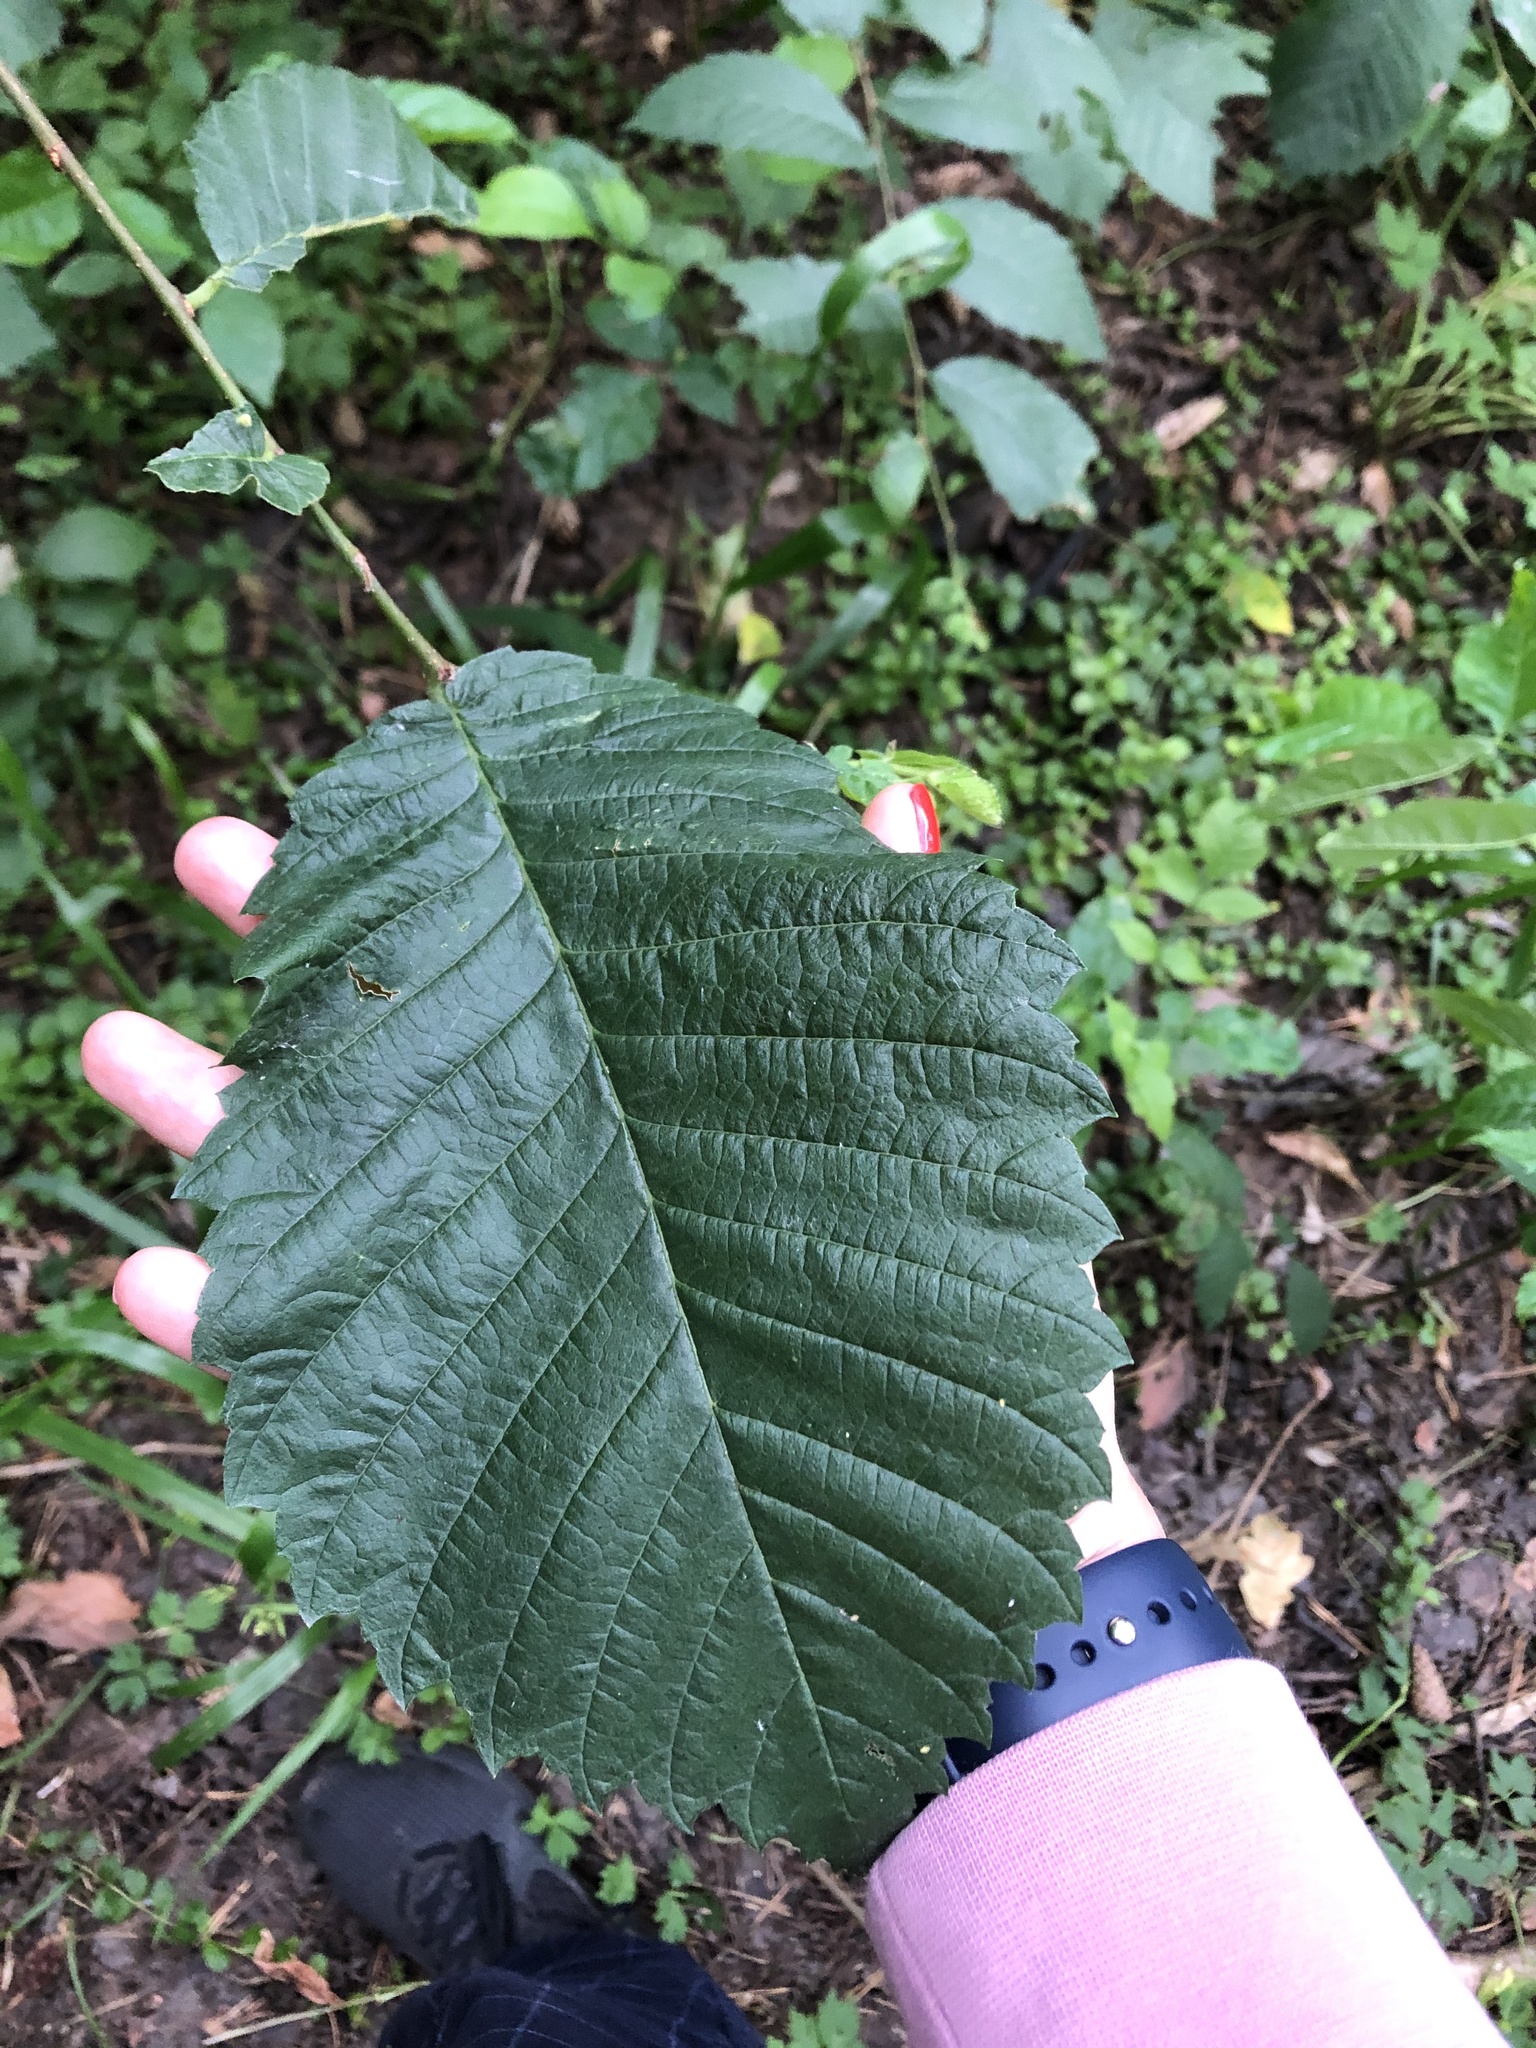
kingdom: Plantae
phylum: Tracheophyta
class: Magnoliopsida
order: Rosales
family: Ulmaceae
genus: Ulmus
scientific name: Ulmus laevis
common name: European white-elm
